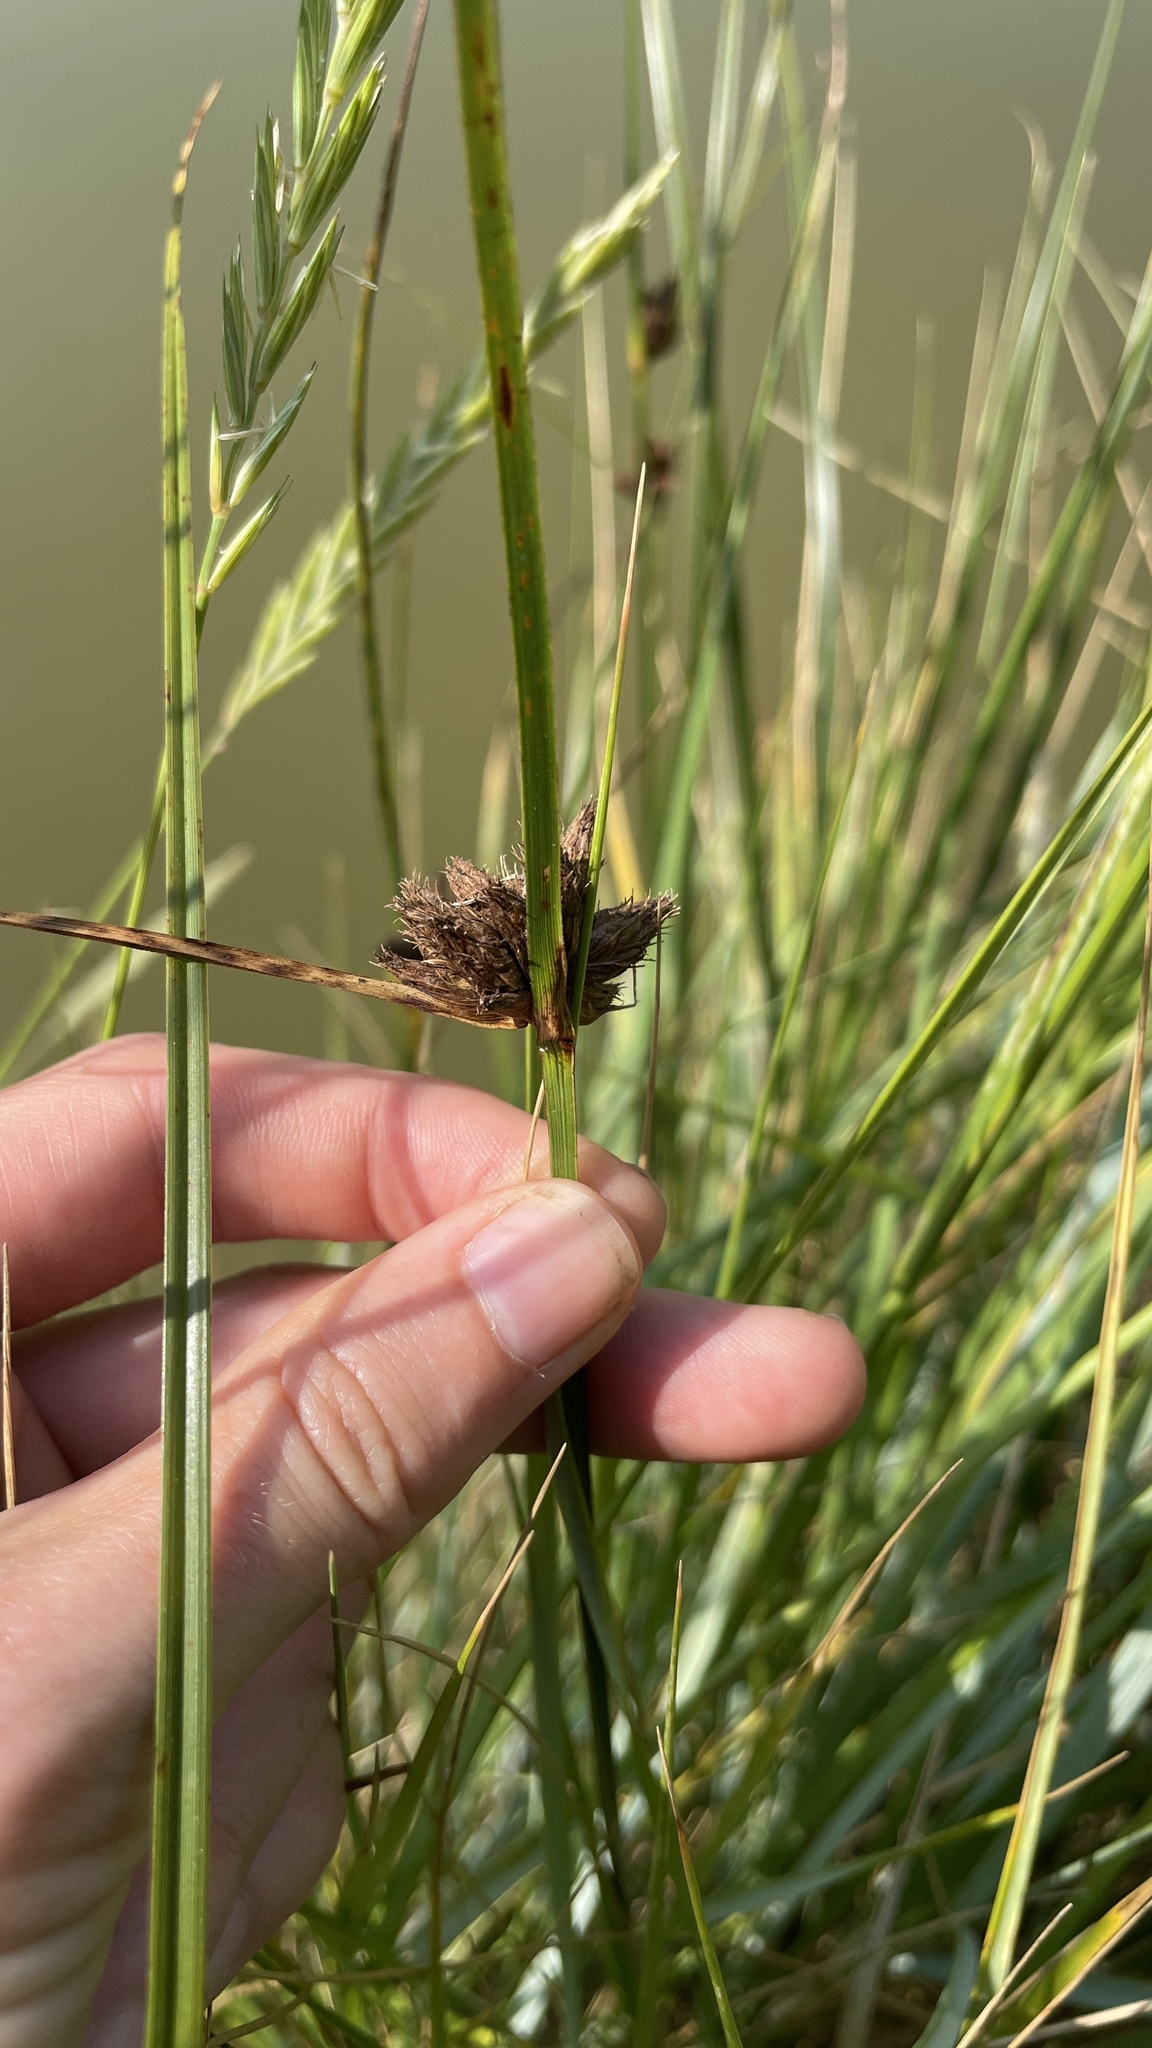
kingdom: Plantae
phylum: Tracheophyta
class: Liliopsida
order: Poales
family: Cyperaceae
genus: Bolboschoenus
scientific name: Bolboschoenus maritimus
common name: Sea club-rush
